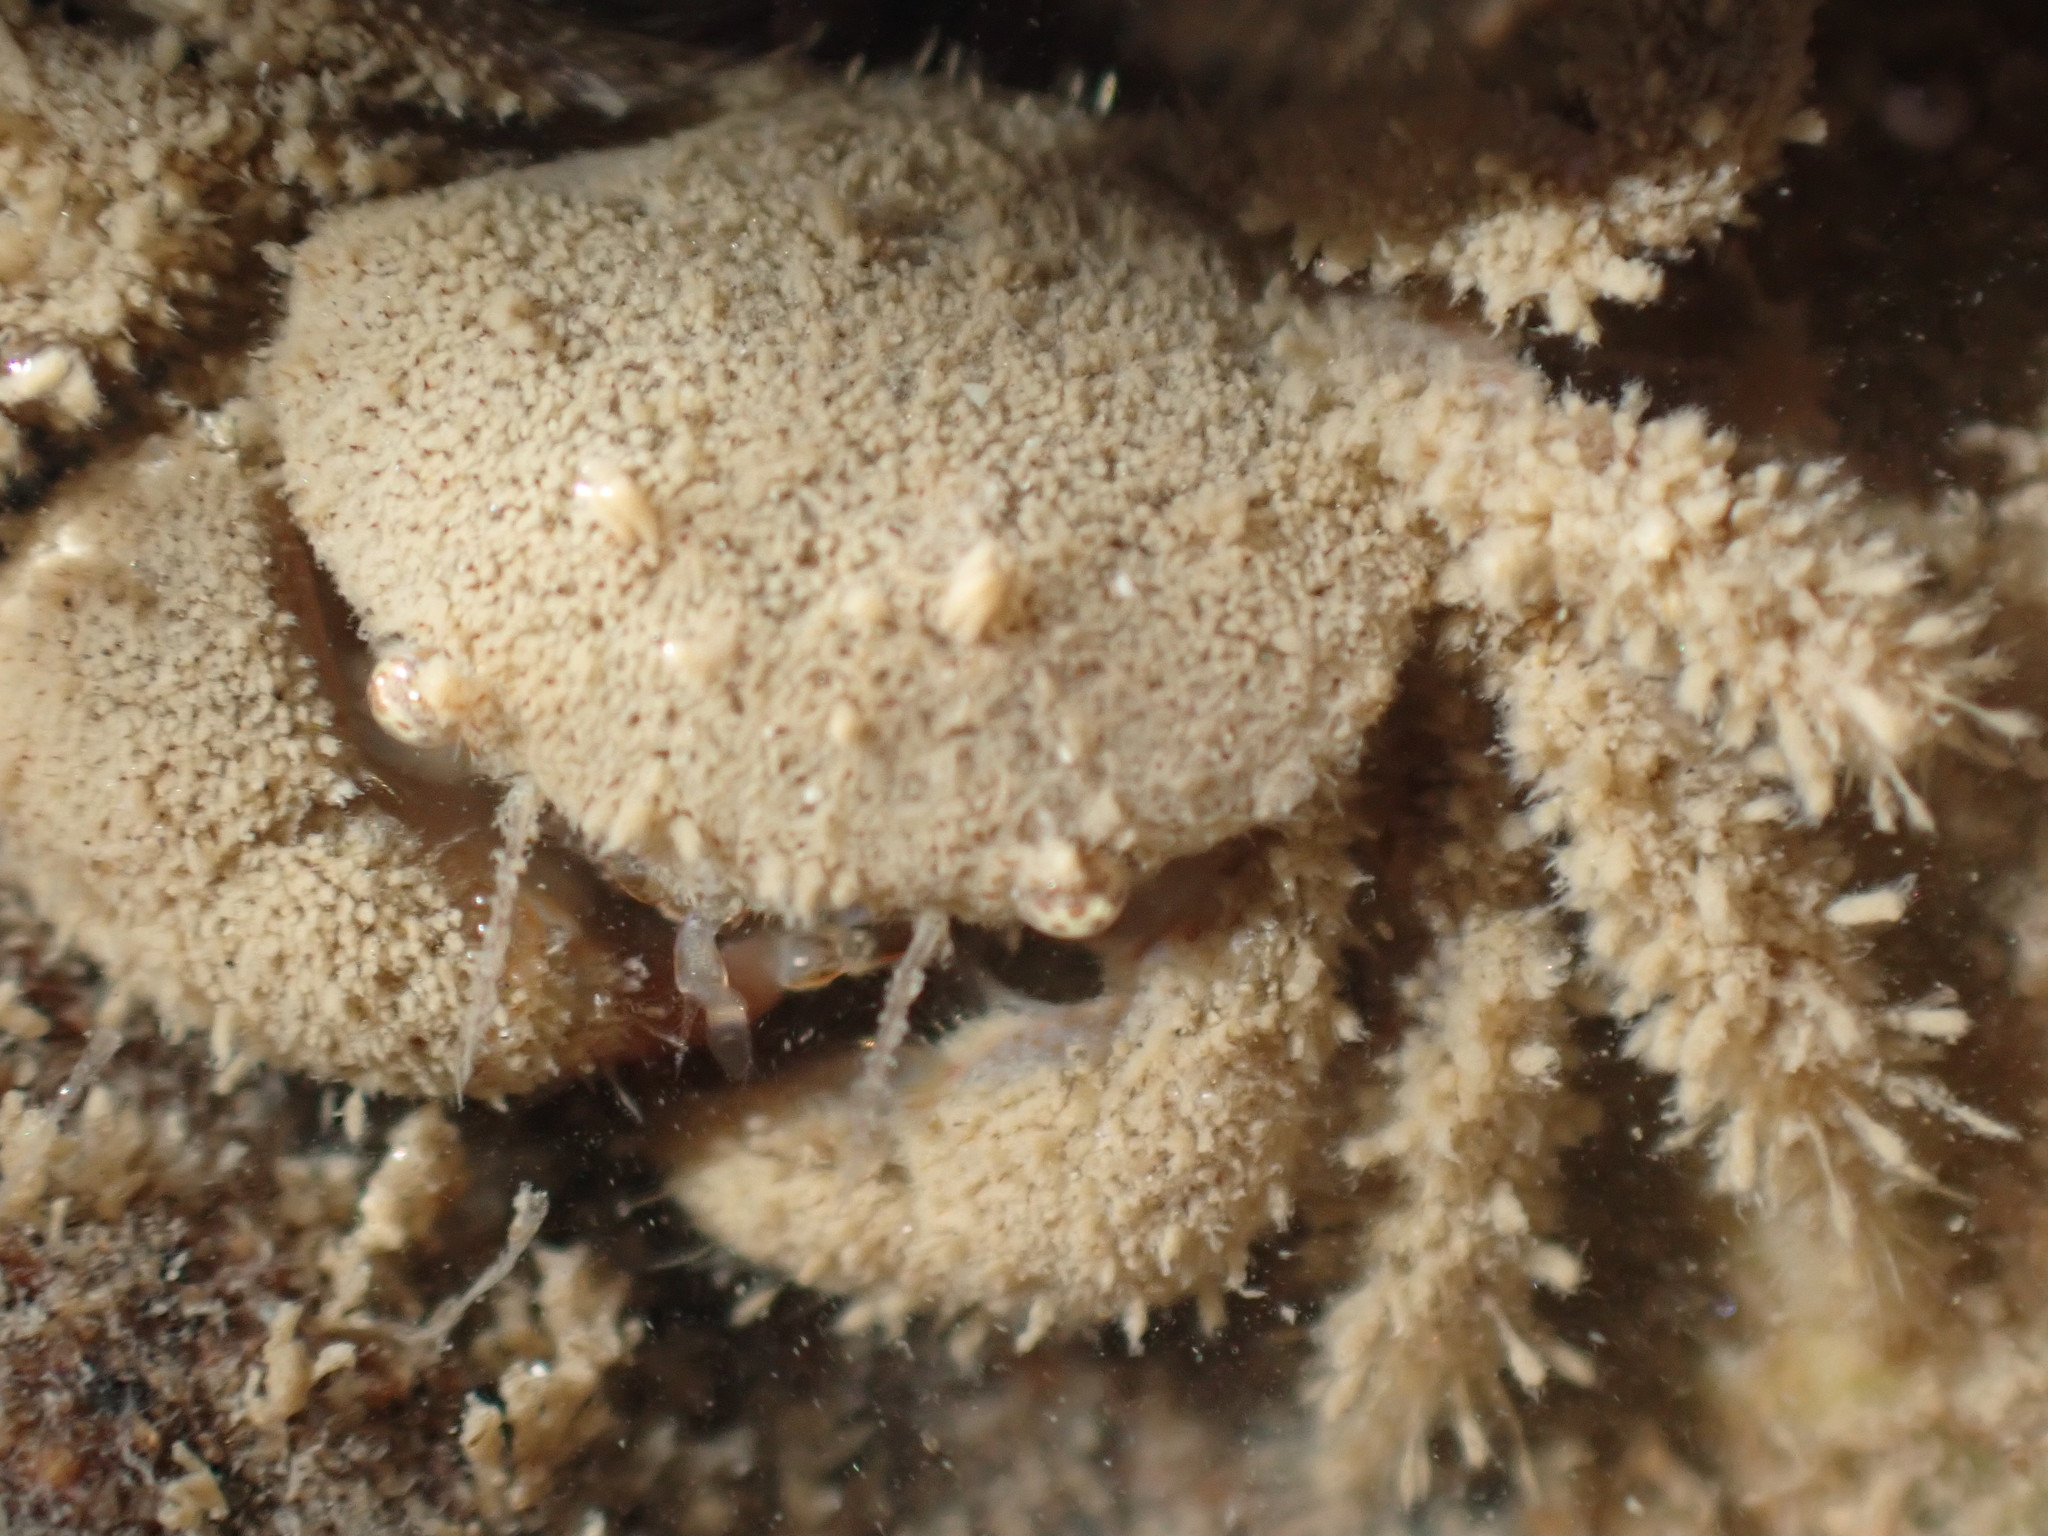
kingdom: Animalia
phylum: Arthropoda
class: Malacostraca
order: Decapoda
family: Pilumnidae
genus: Pilumnus
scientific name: Pilumnus lumpinus
